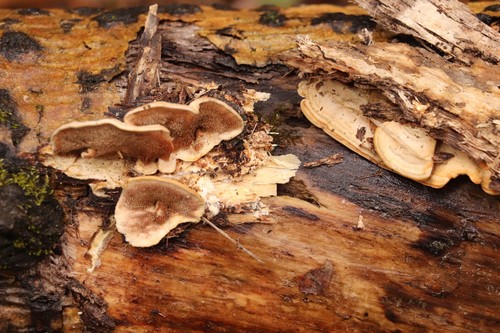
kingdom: Fungi
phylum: Basidiomycota
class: Agaricomycetes
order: Polyporales
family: Steccherinaceae
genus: Metuloidea
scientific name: Metuloidea murashkinskyi
